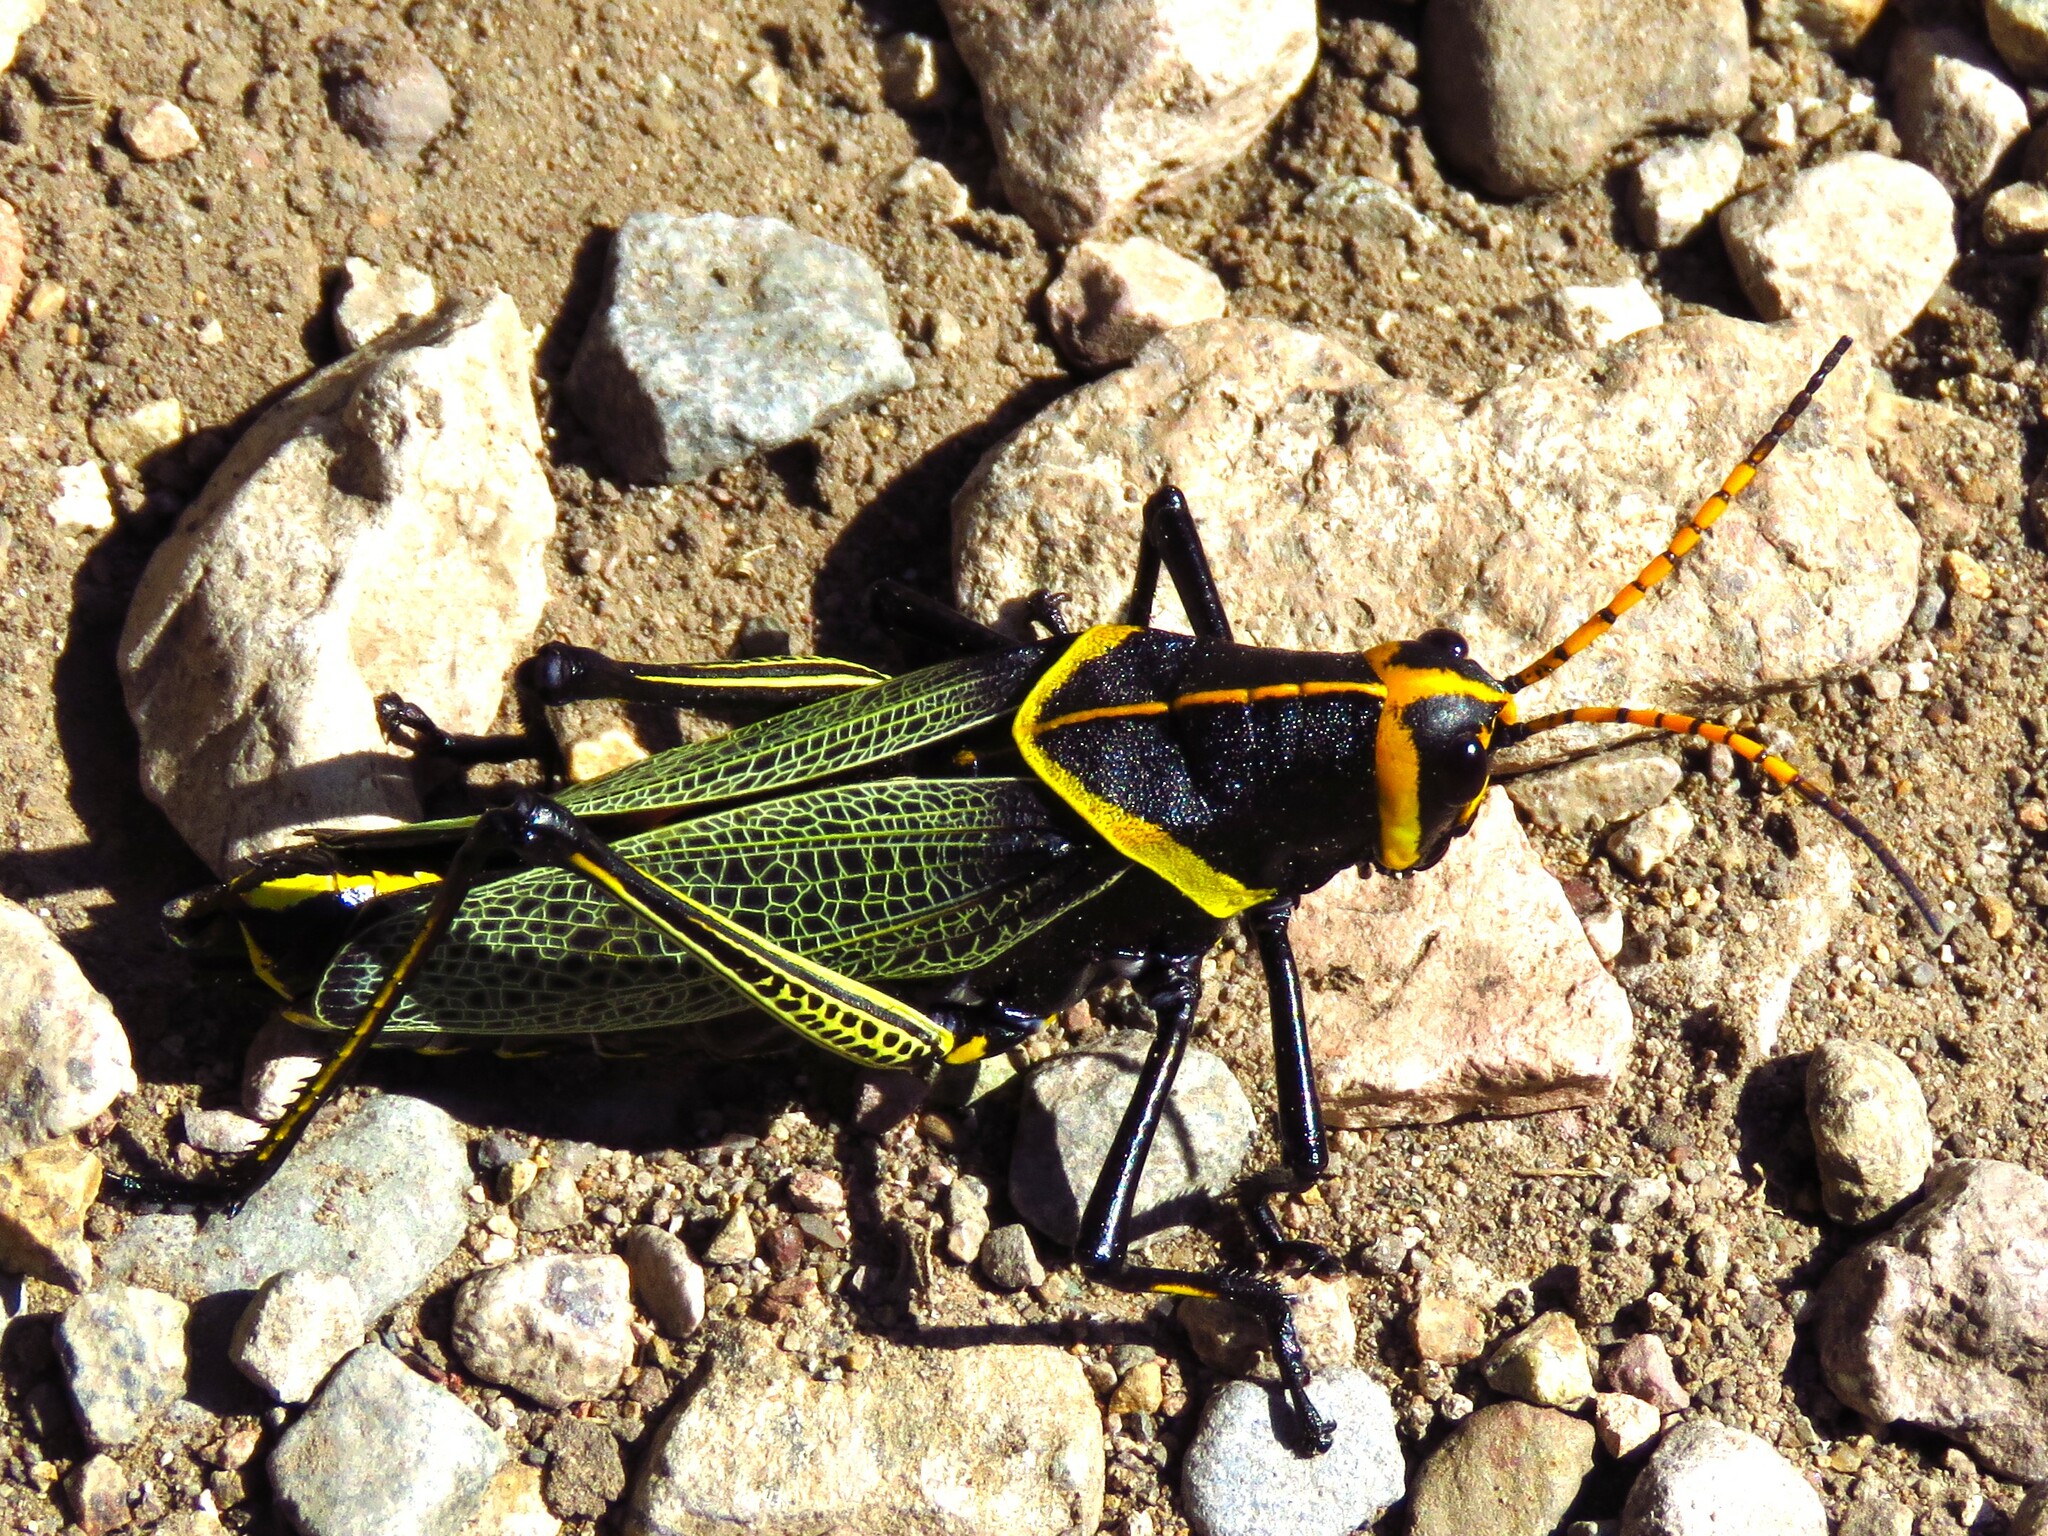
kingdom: Animalia
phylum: Arthropoda
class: Insecta
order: Orthoptera
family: Romaleidae
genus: Romalea
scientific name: Romalea
